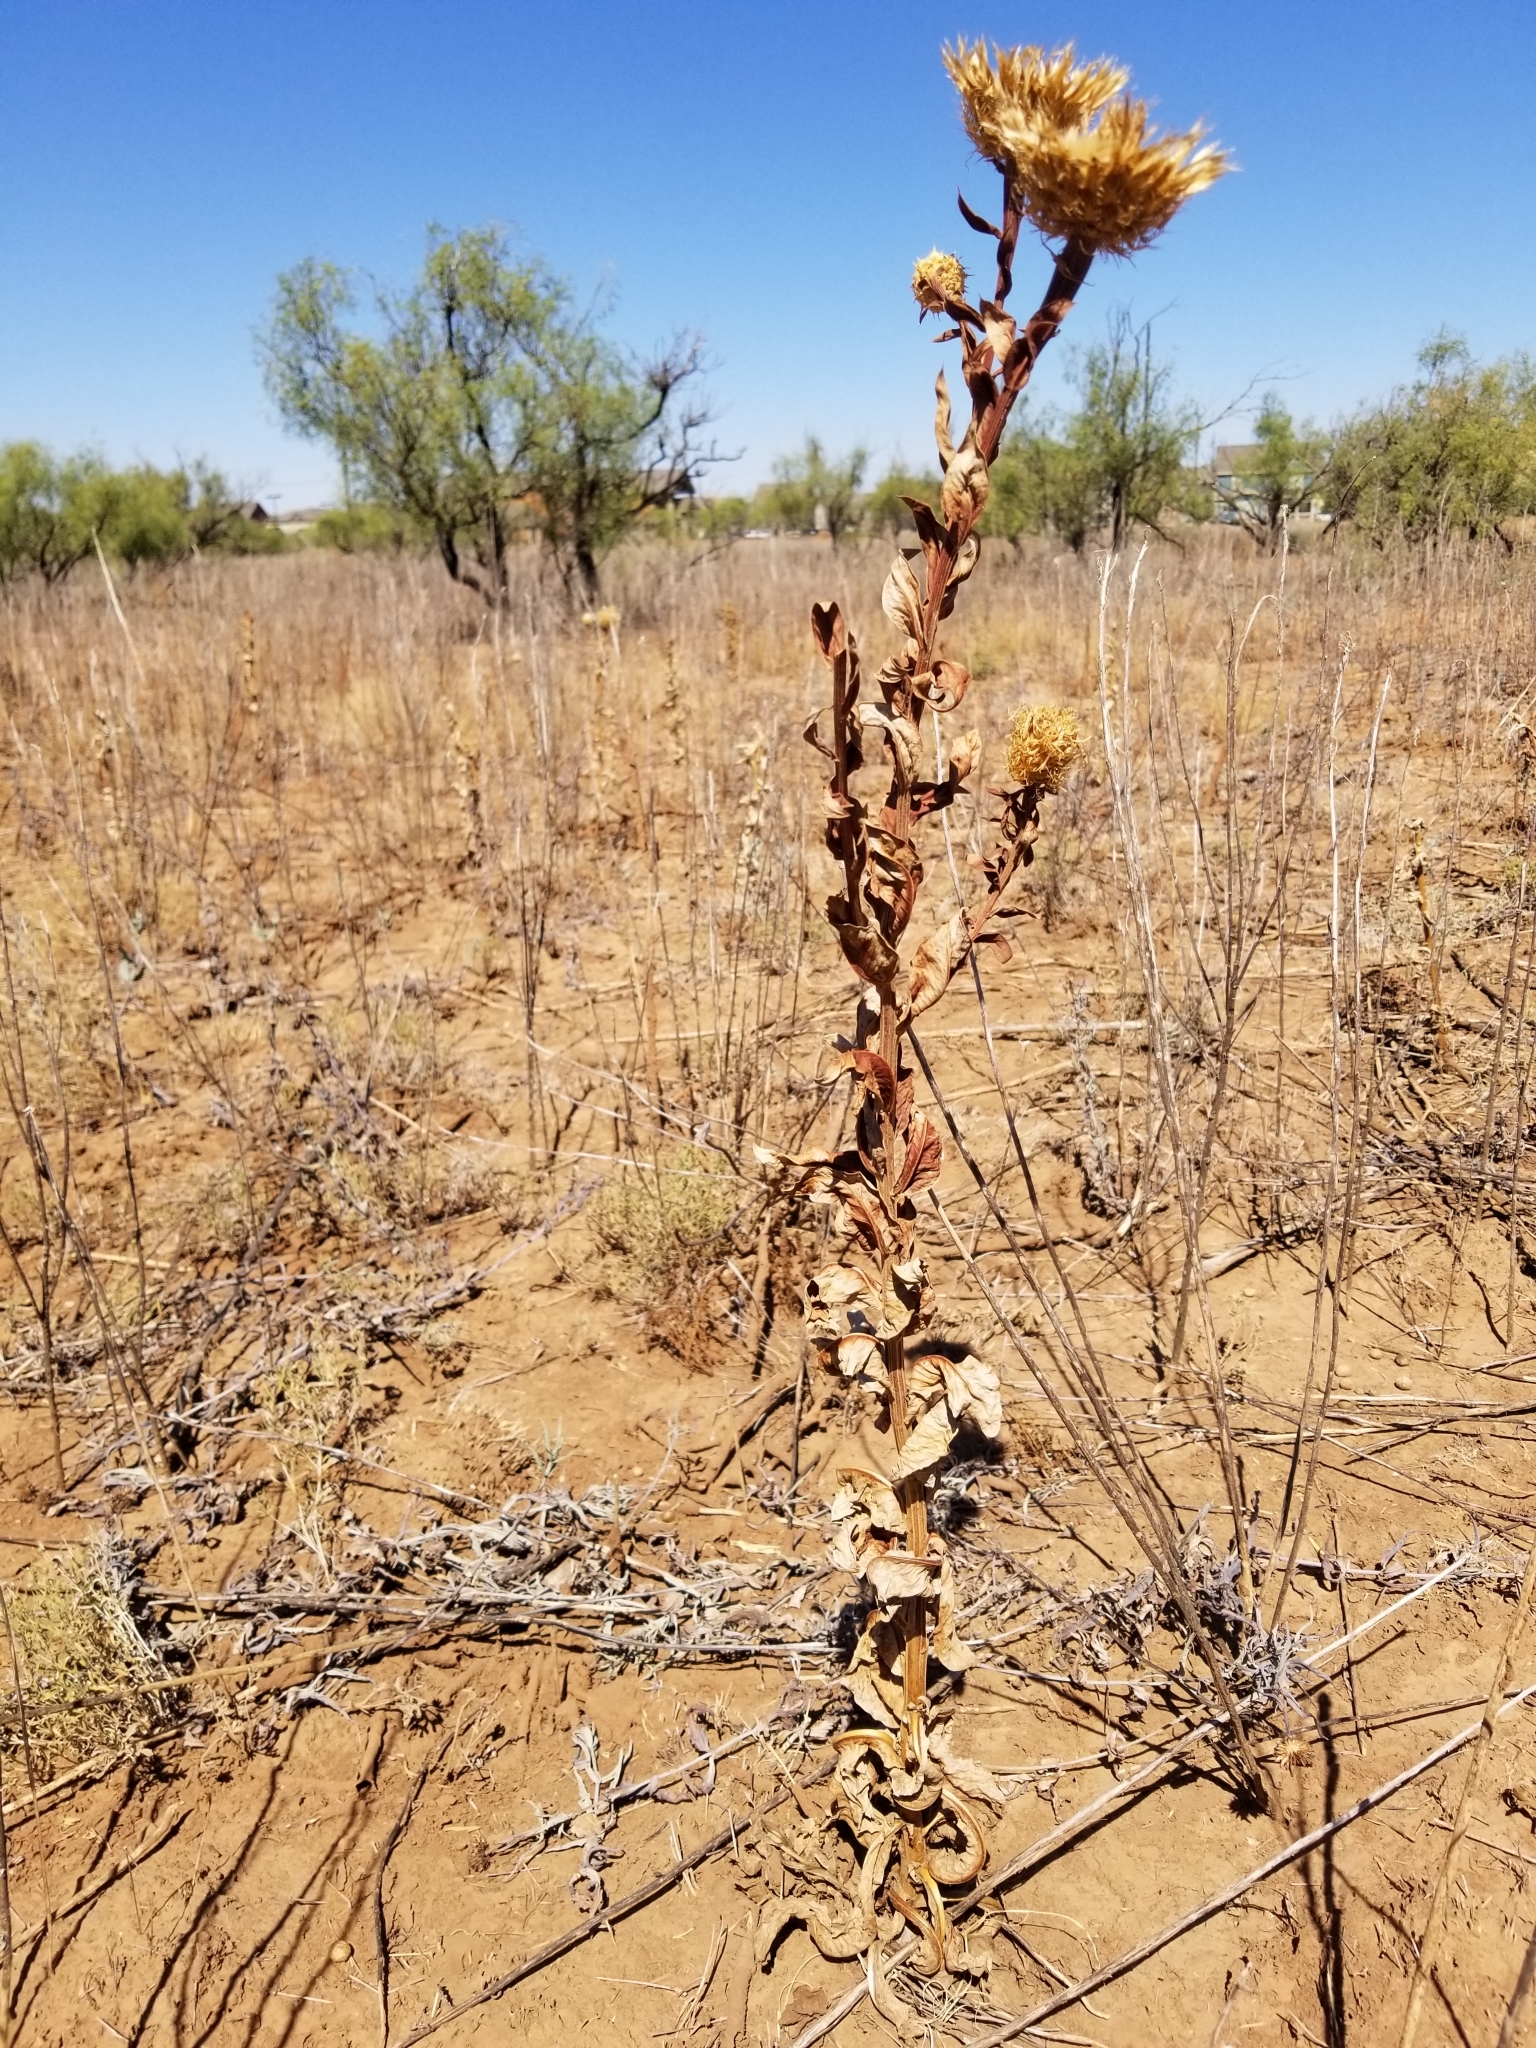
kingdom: Plantae
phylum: Tracheophyta
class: Magnoliopsida
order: Asterales
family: Asteraceae
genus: Plectocephalus
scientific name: Plectocephalus americanus
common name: American basket-flower
